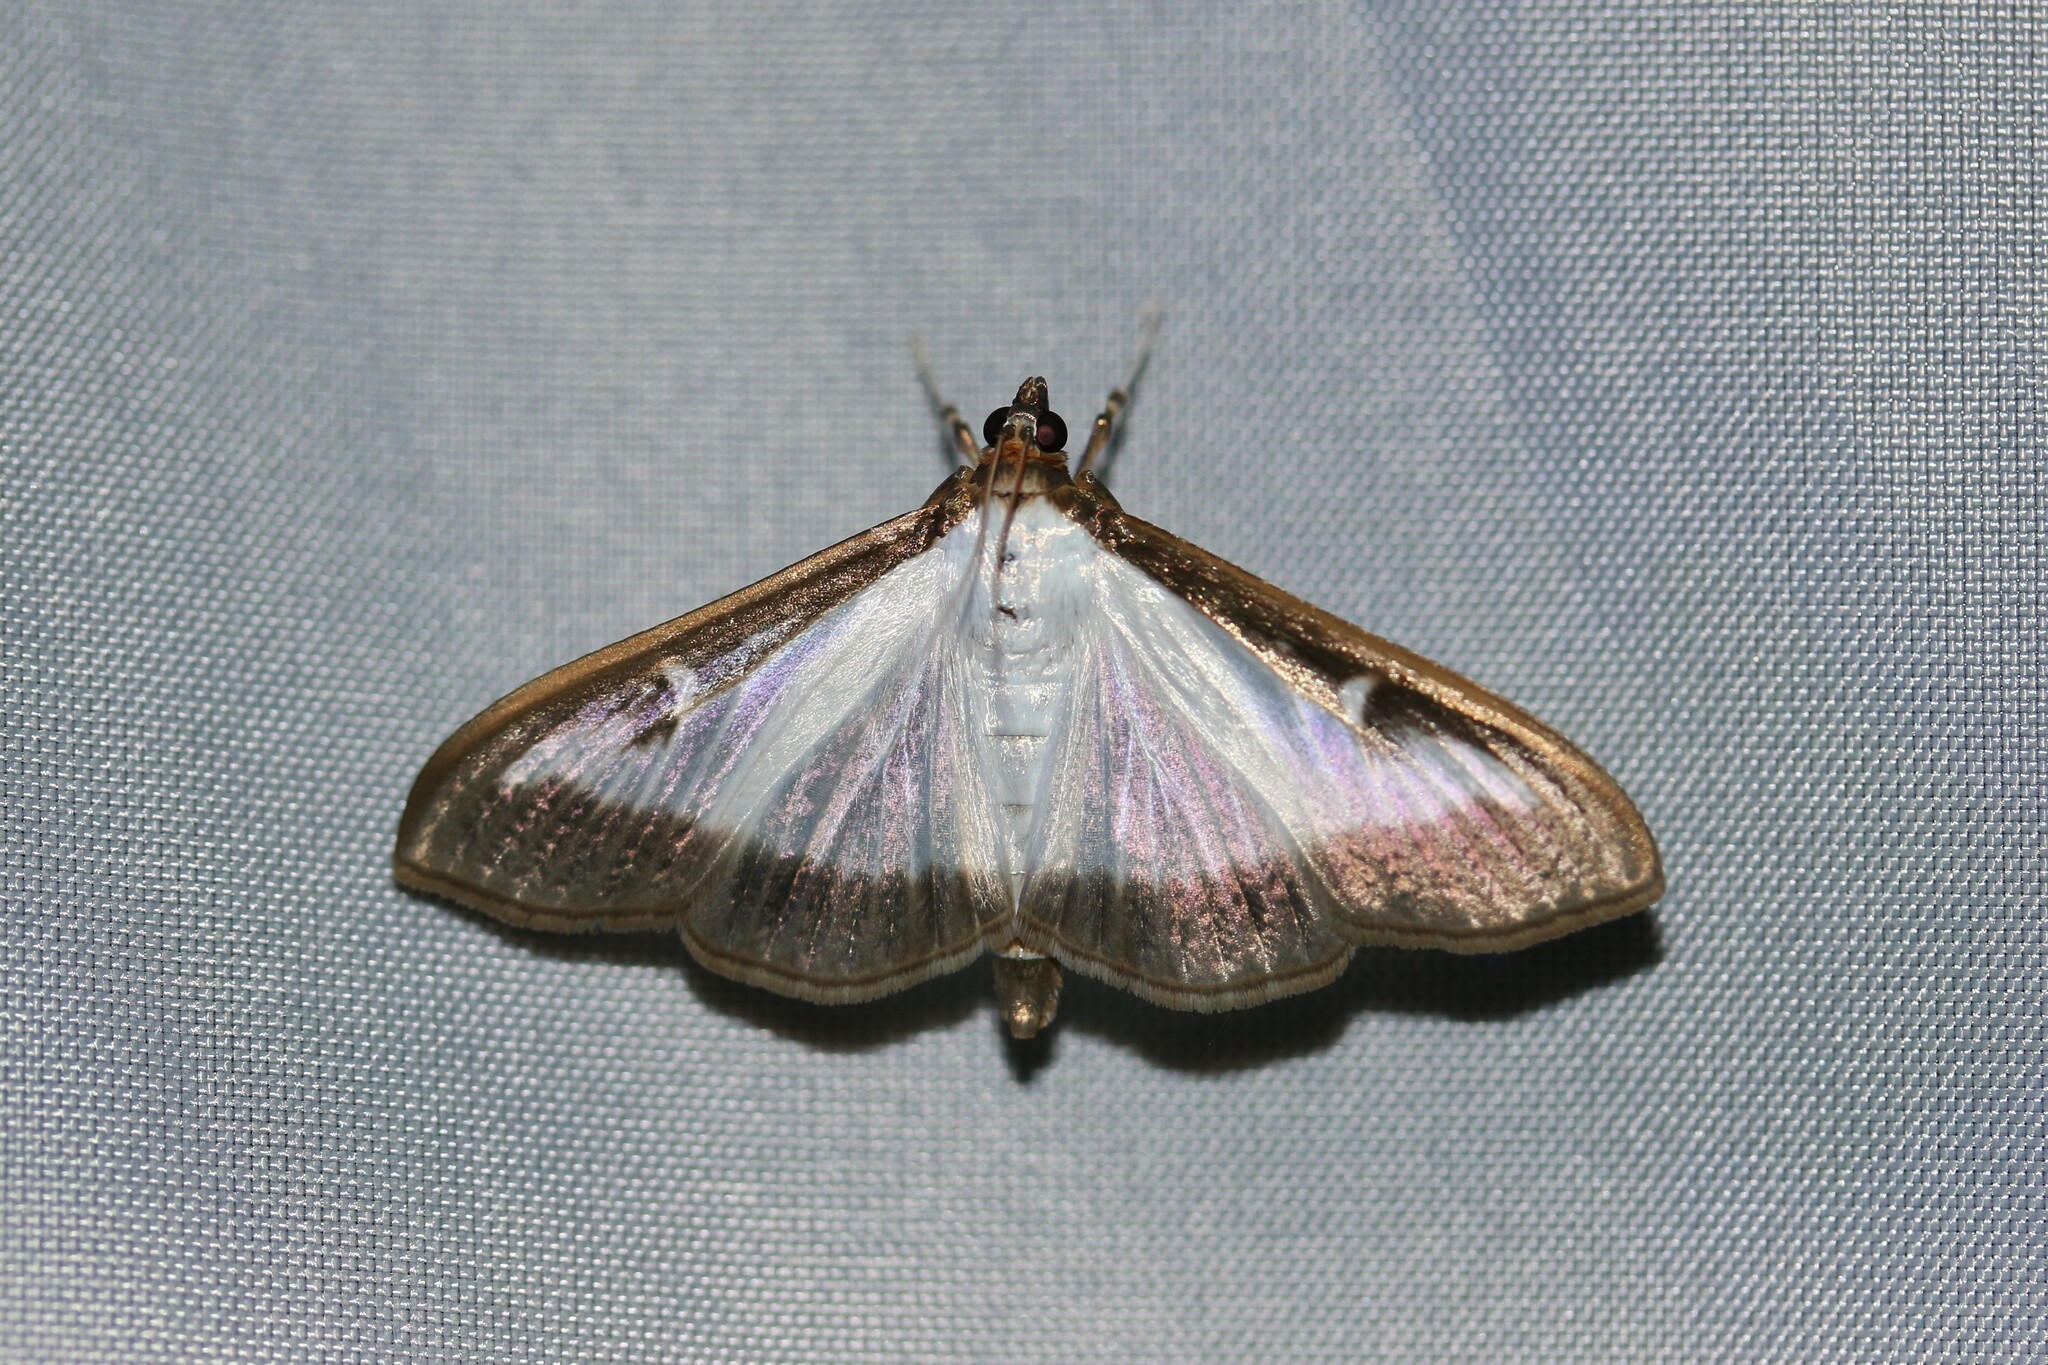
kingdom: Animalia
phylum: Arthropoda
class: Insecta
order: Lepidoptera
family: Crambidae
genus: Cydalima
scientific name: Cydalima perspectalis
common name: Box tree moth
